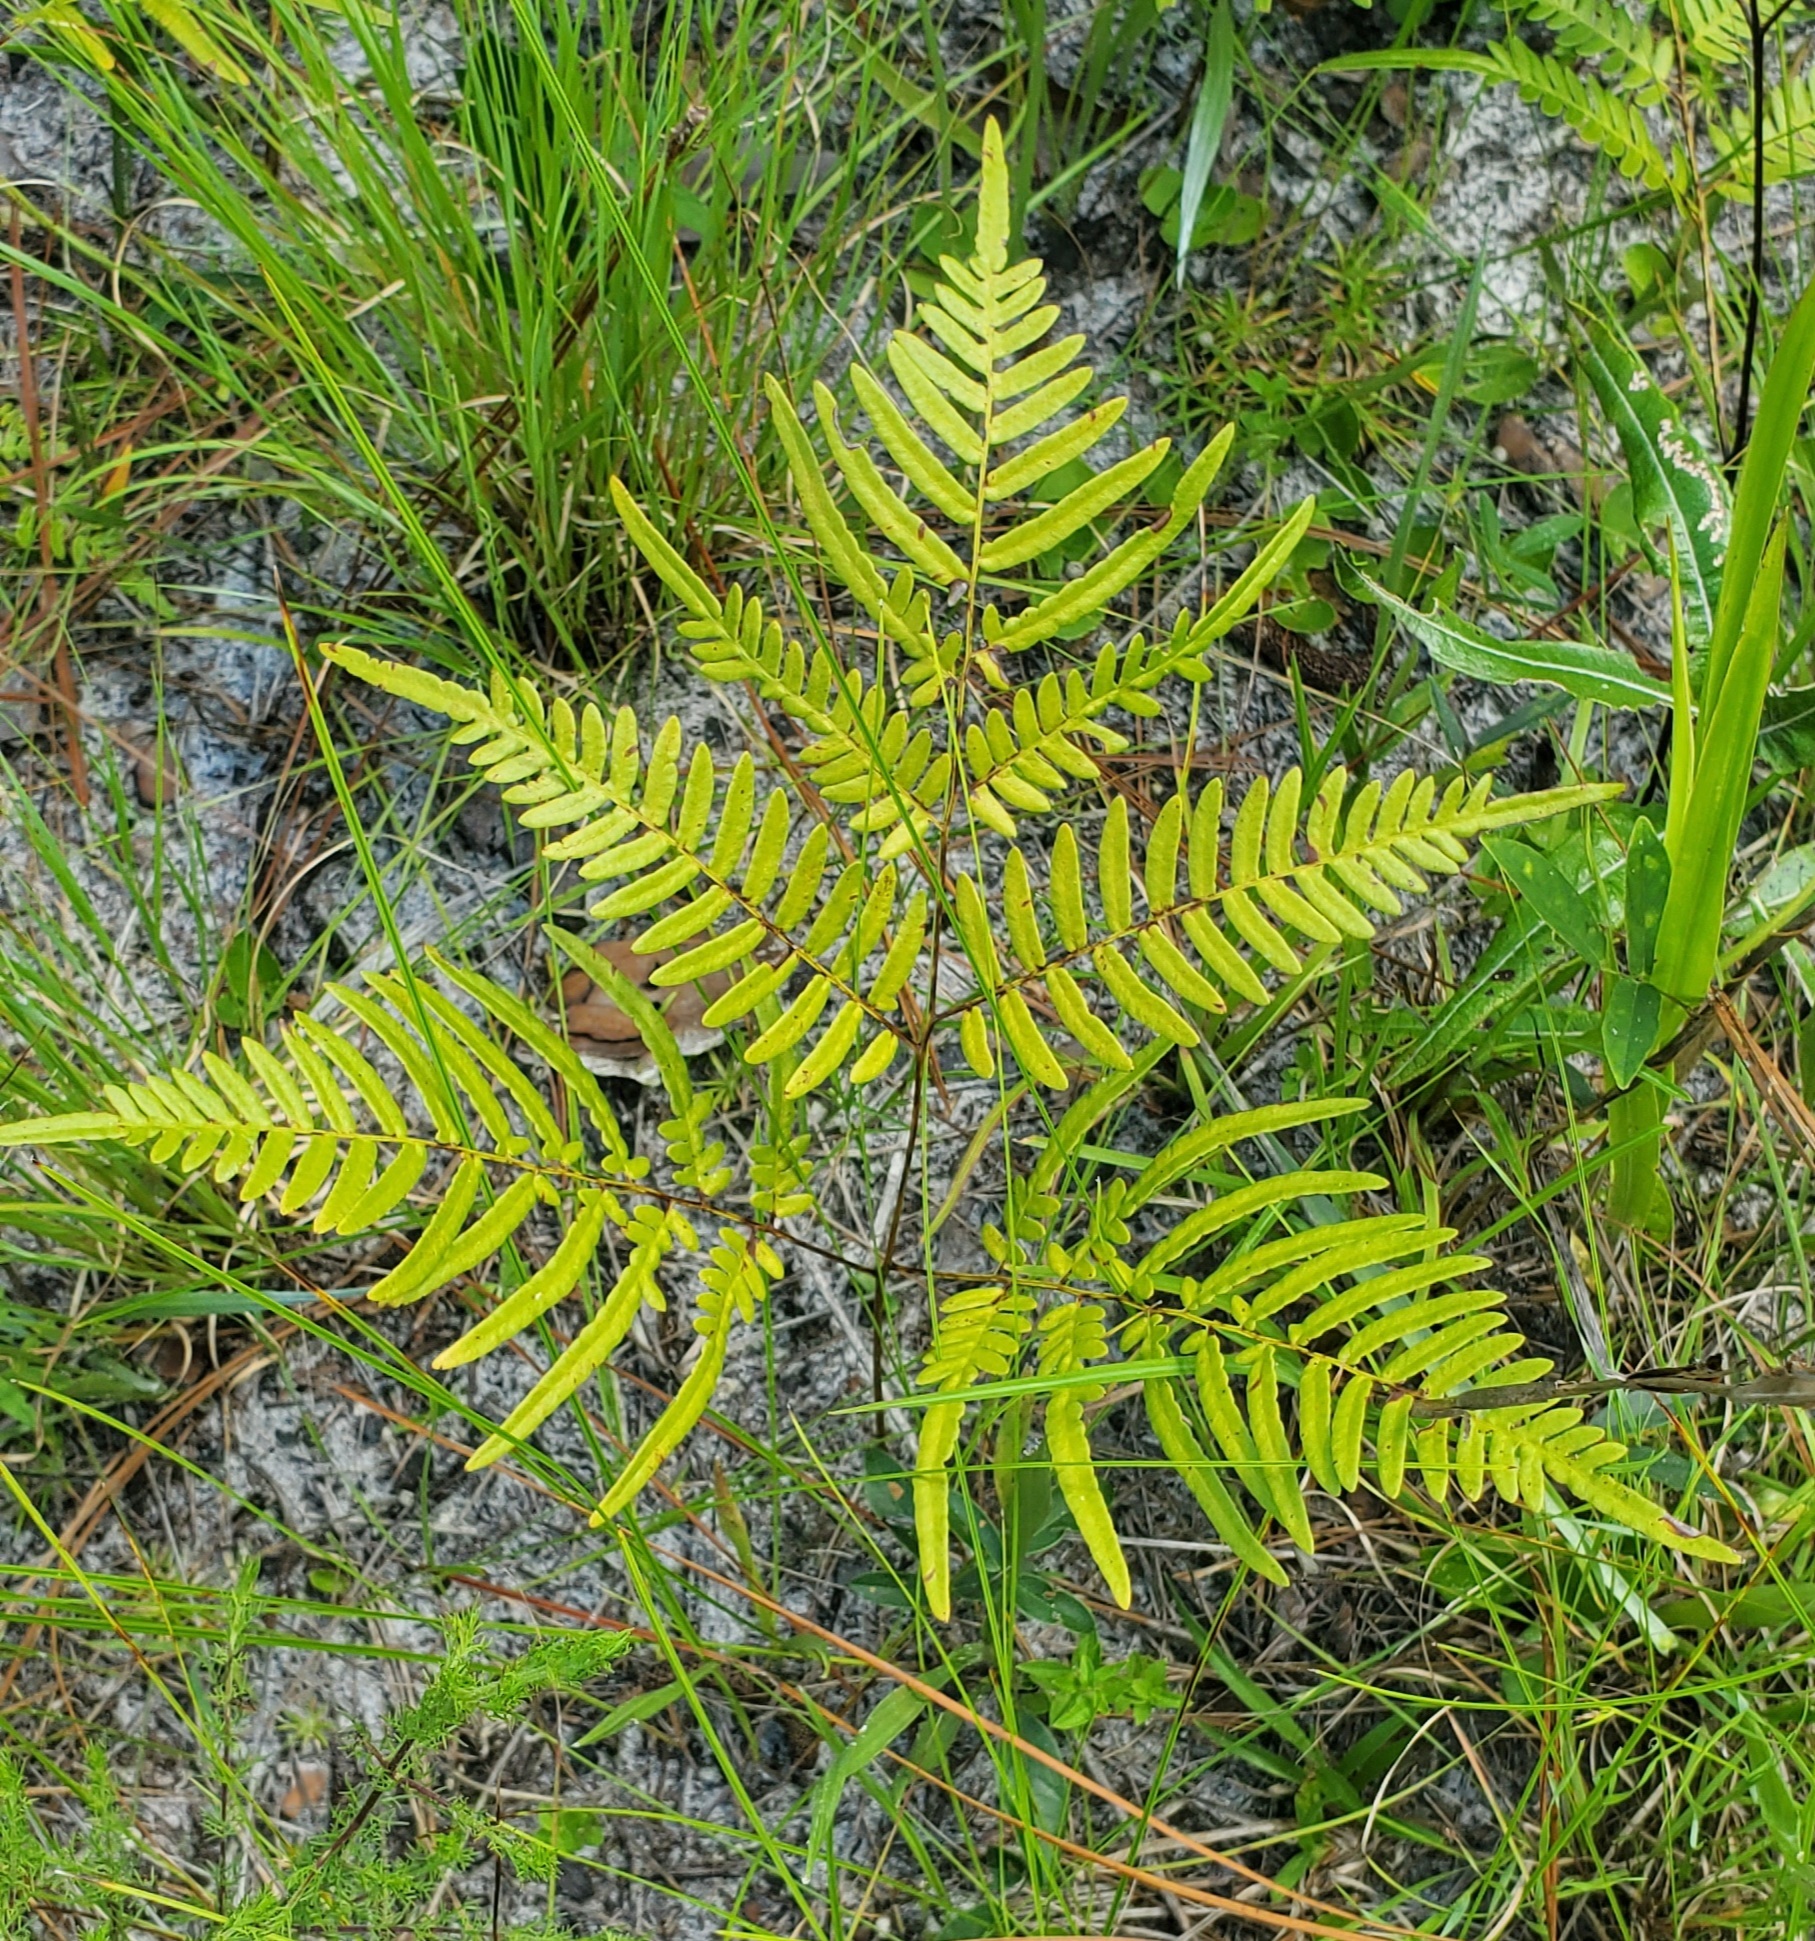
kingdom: Plantae
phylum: Tracheophyta
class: Polypodiopsida
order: Polypodiales
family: Dennstaedtiaceae
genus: Pteridium
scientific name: Pteridium aquilinum
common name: Bracken
